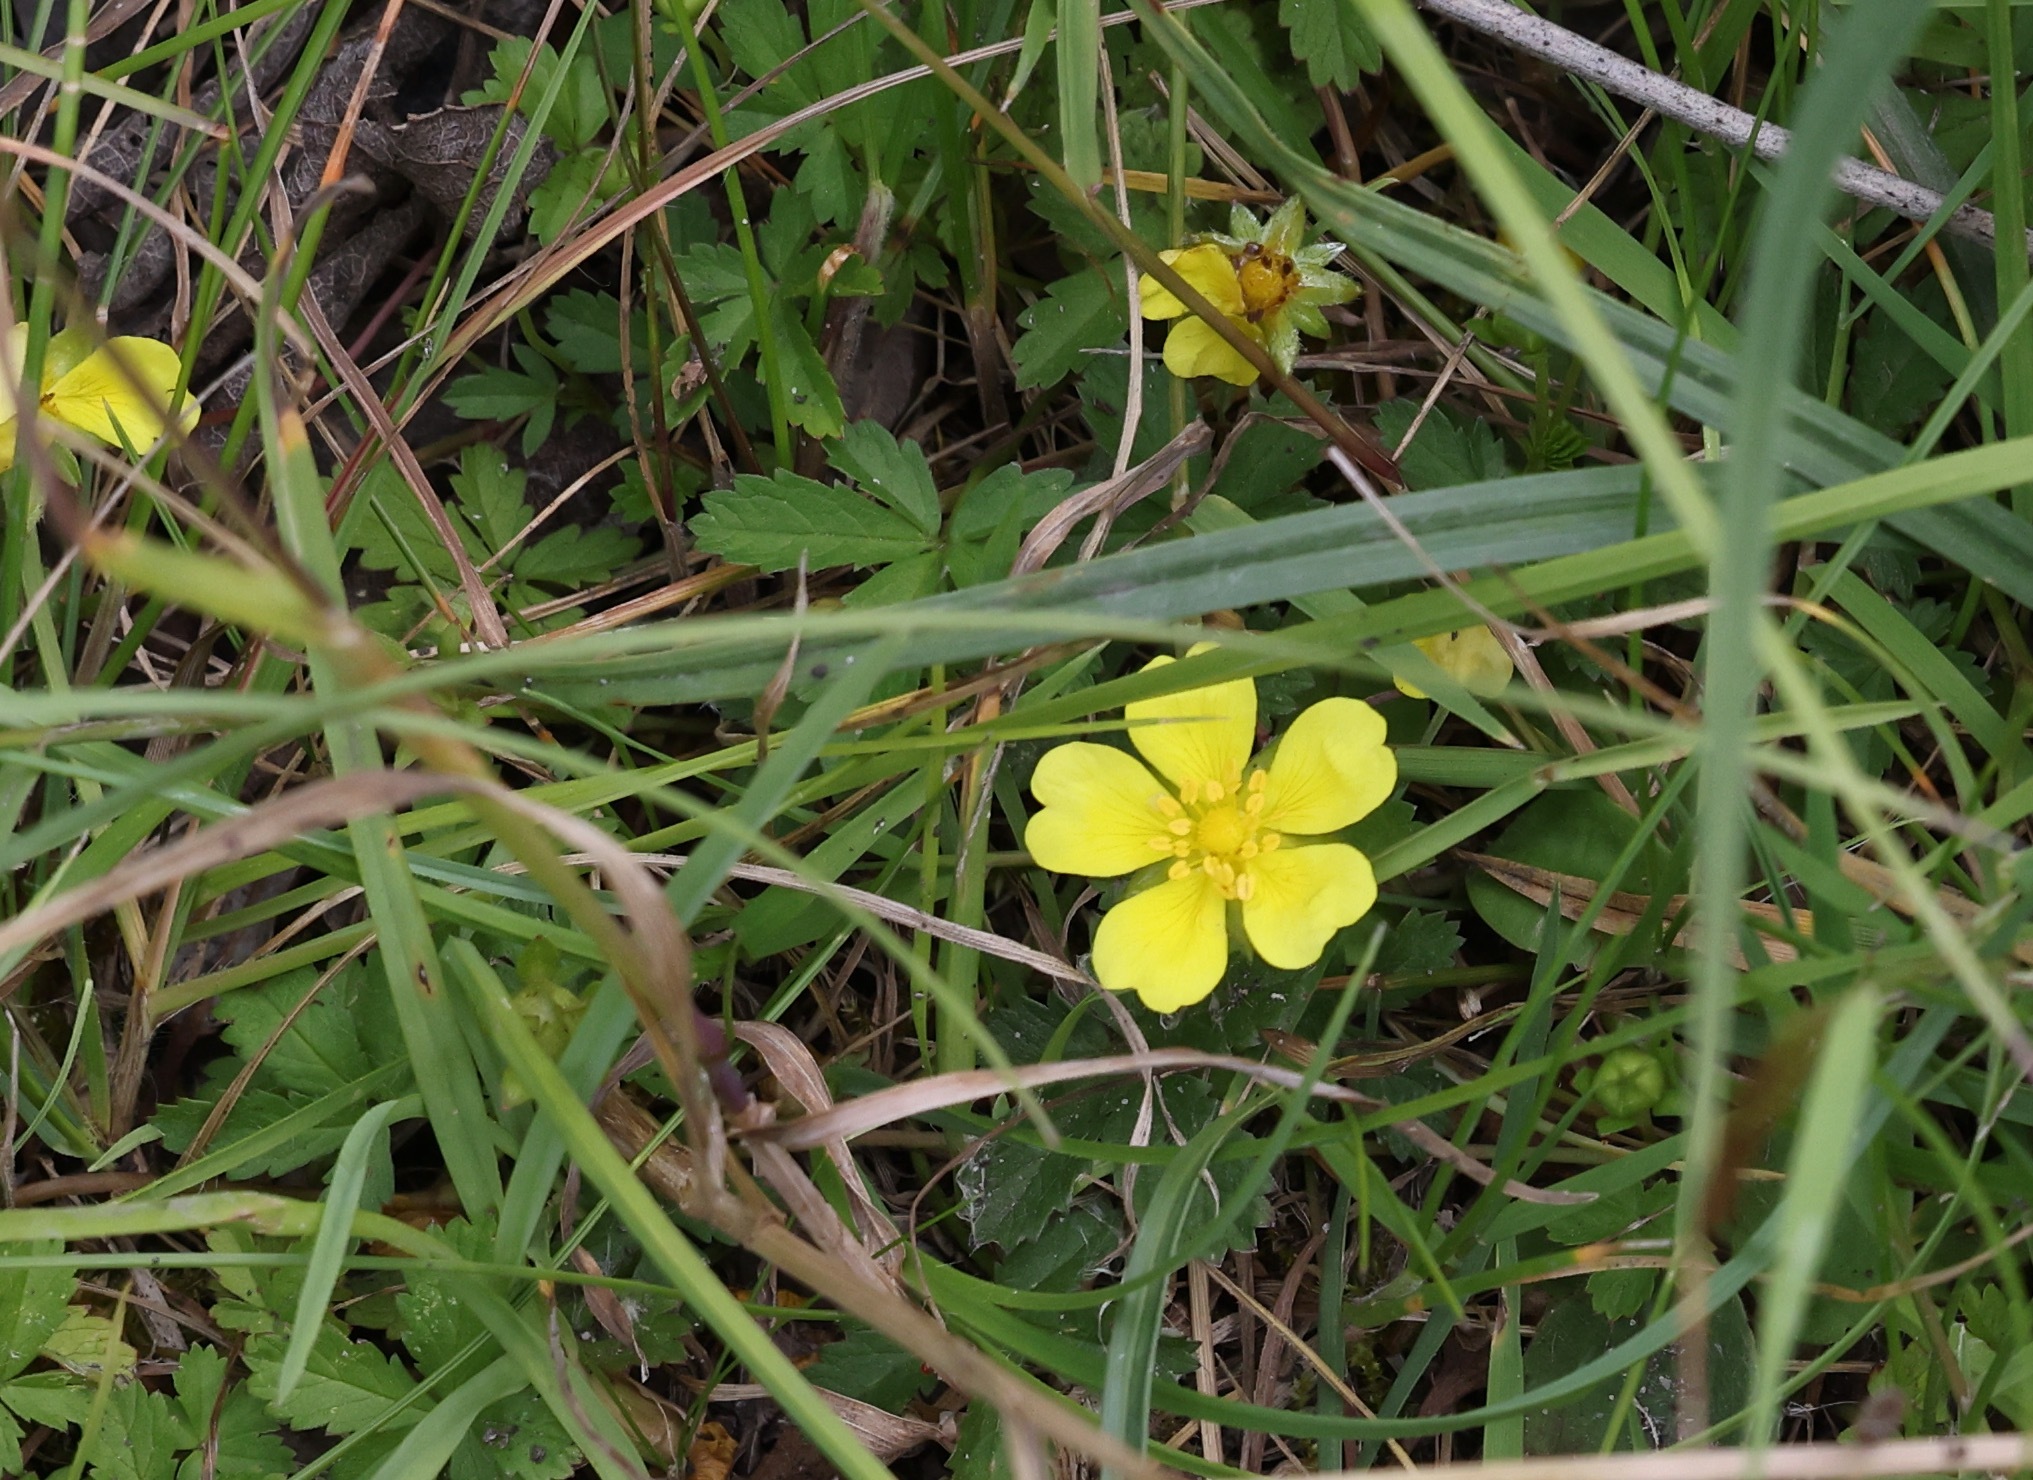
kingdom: Plantae
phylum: Tracheophyta
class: Magnoliopsida
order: Rosales
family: Rosaceae
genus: Potentilla
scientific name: Potentilla reptans
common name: Creeping cinquefoil
